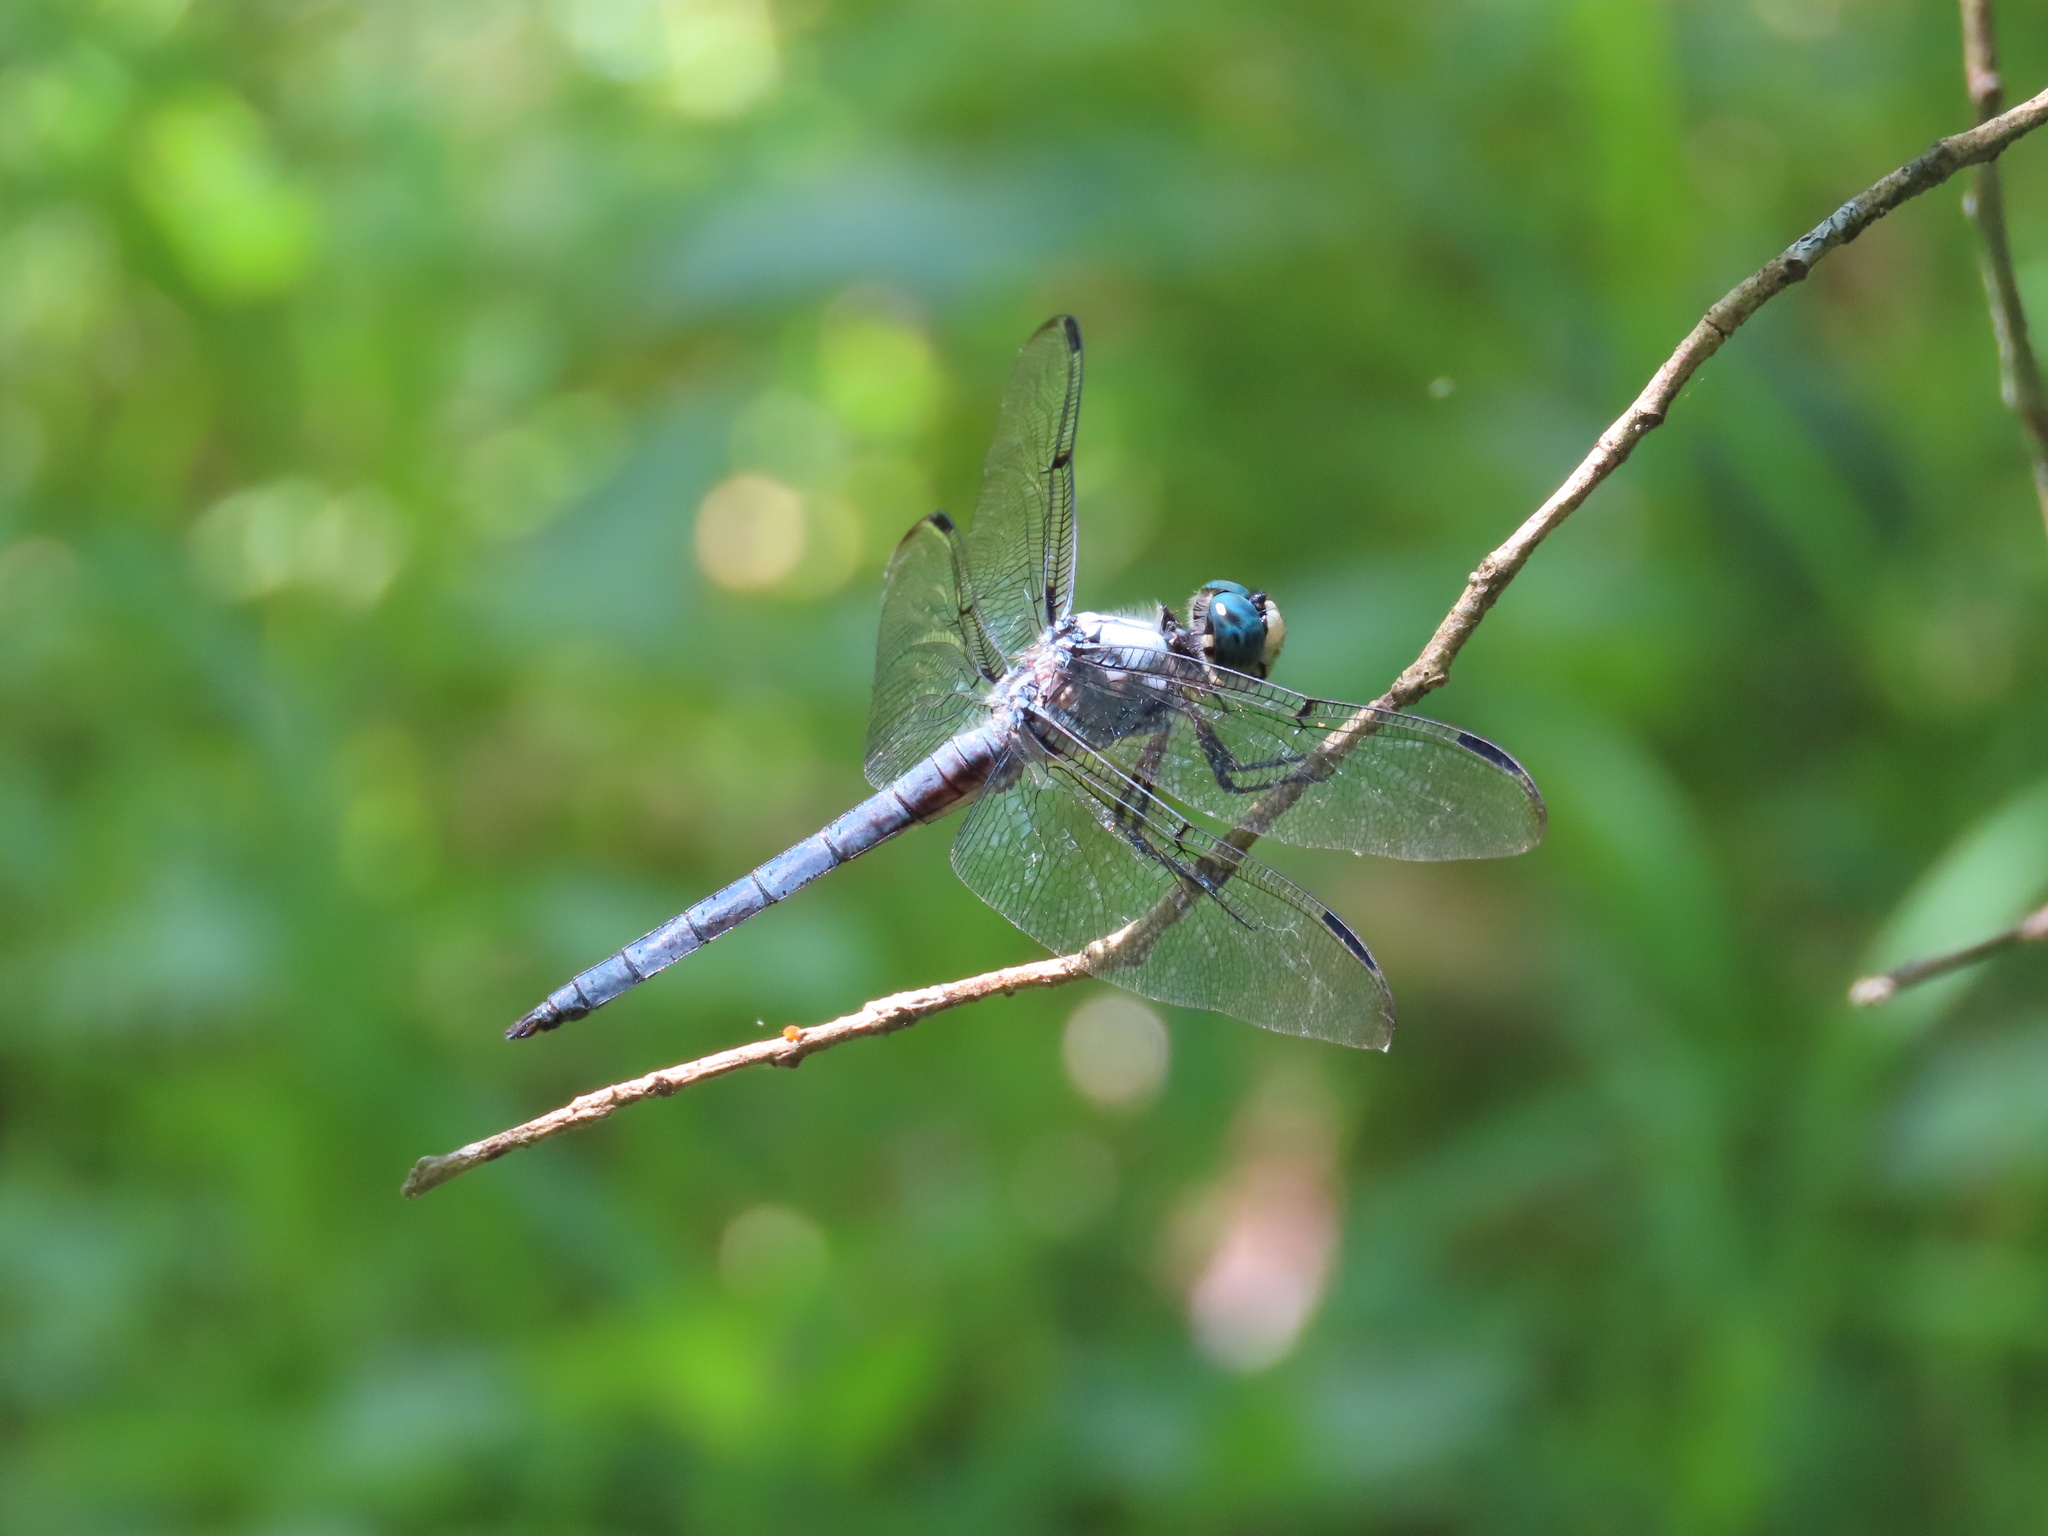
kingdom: Animalia
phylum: Arthropoda
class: Insecta
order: Odonata
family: Libellulidae
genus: Libellula
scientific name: Libellula vibrans
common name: Great blue skimmer
